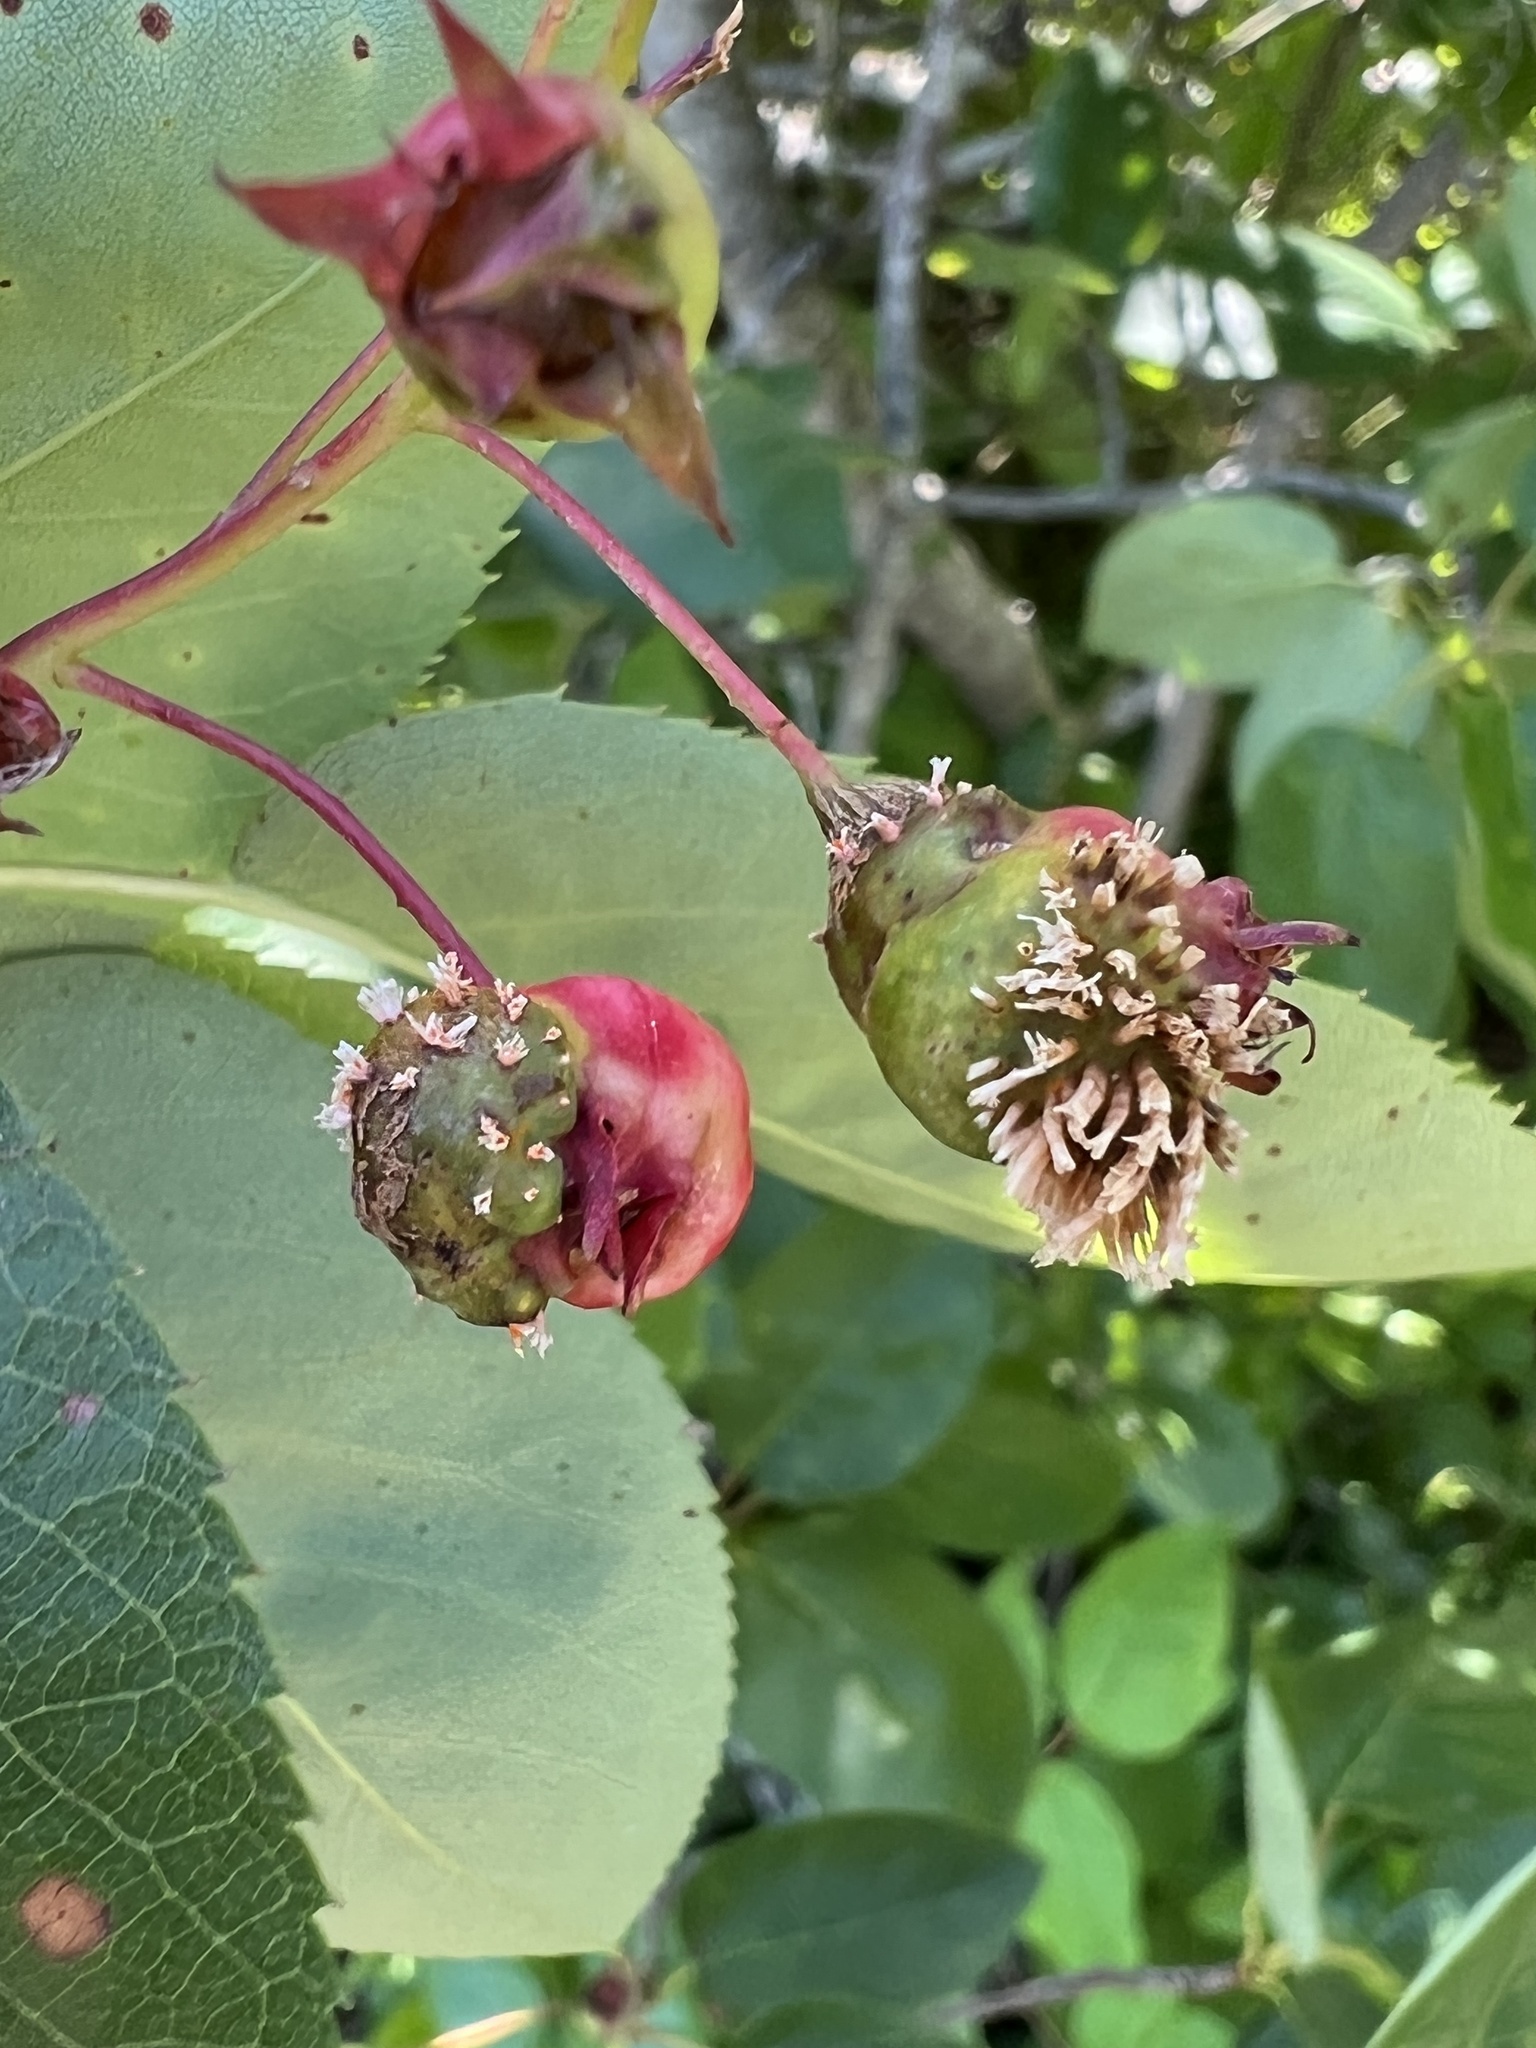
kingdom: Fungi
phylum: Basidiomycota
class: Pucciniomycetes
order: Pucciniales
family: Gymnosporangiaceae
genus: Gymnosporangium
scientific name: Gymnosporangium clavipes
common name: Quince rust
